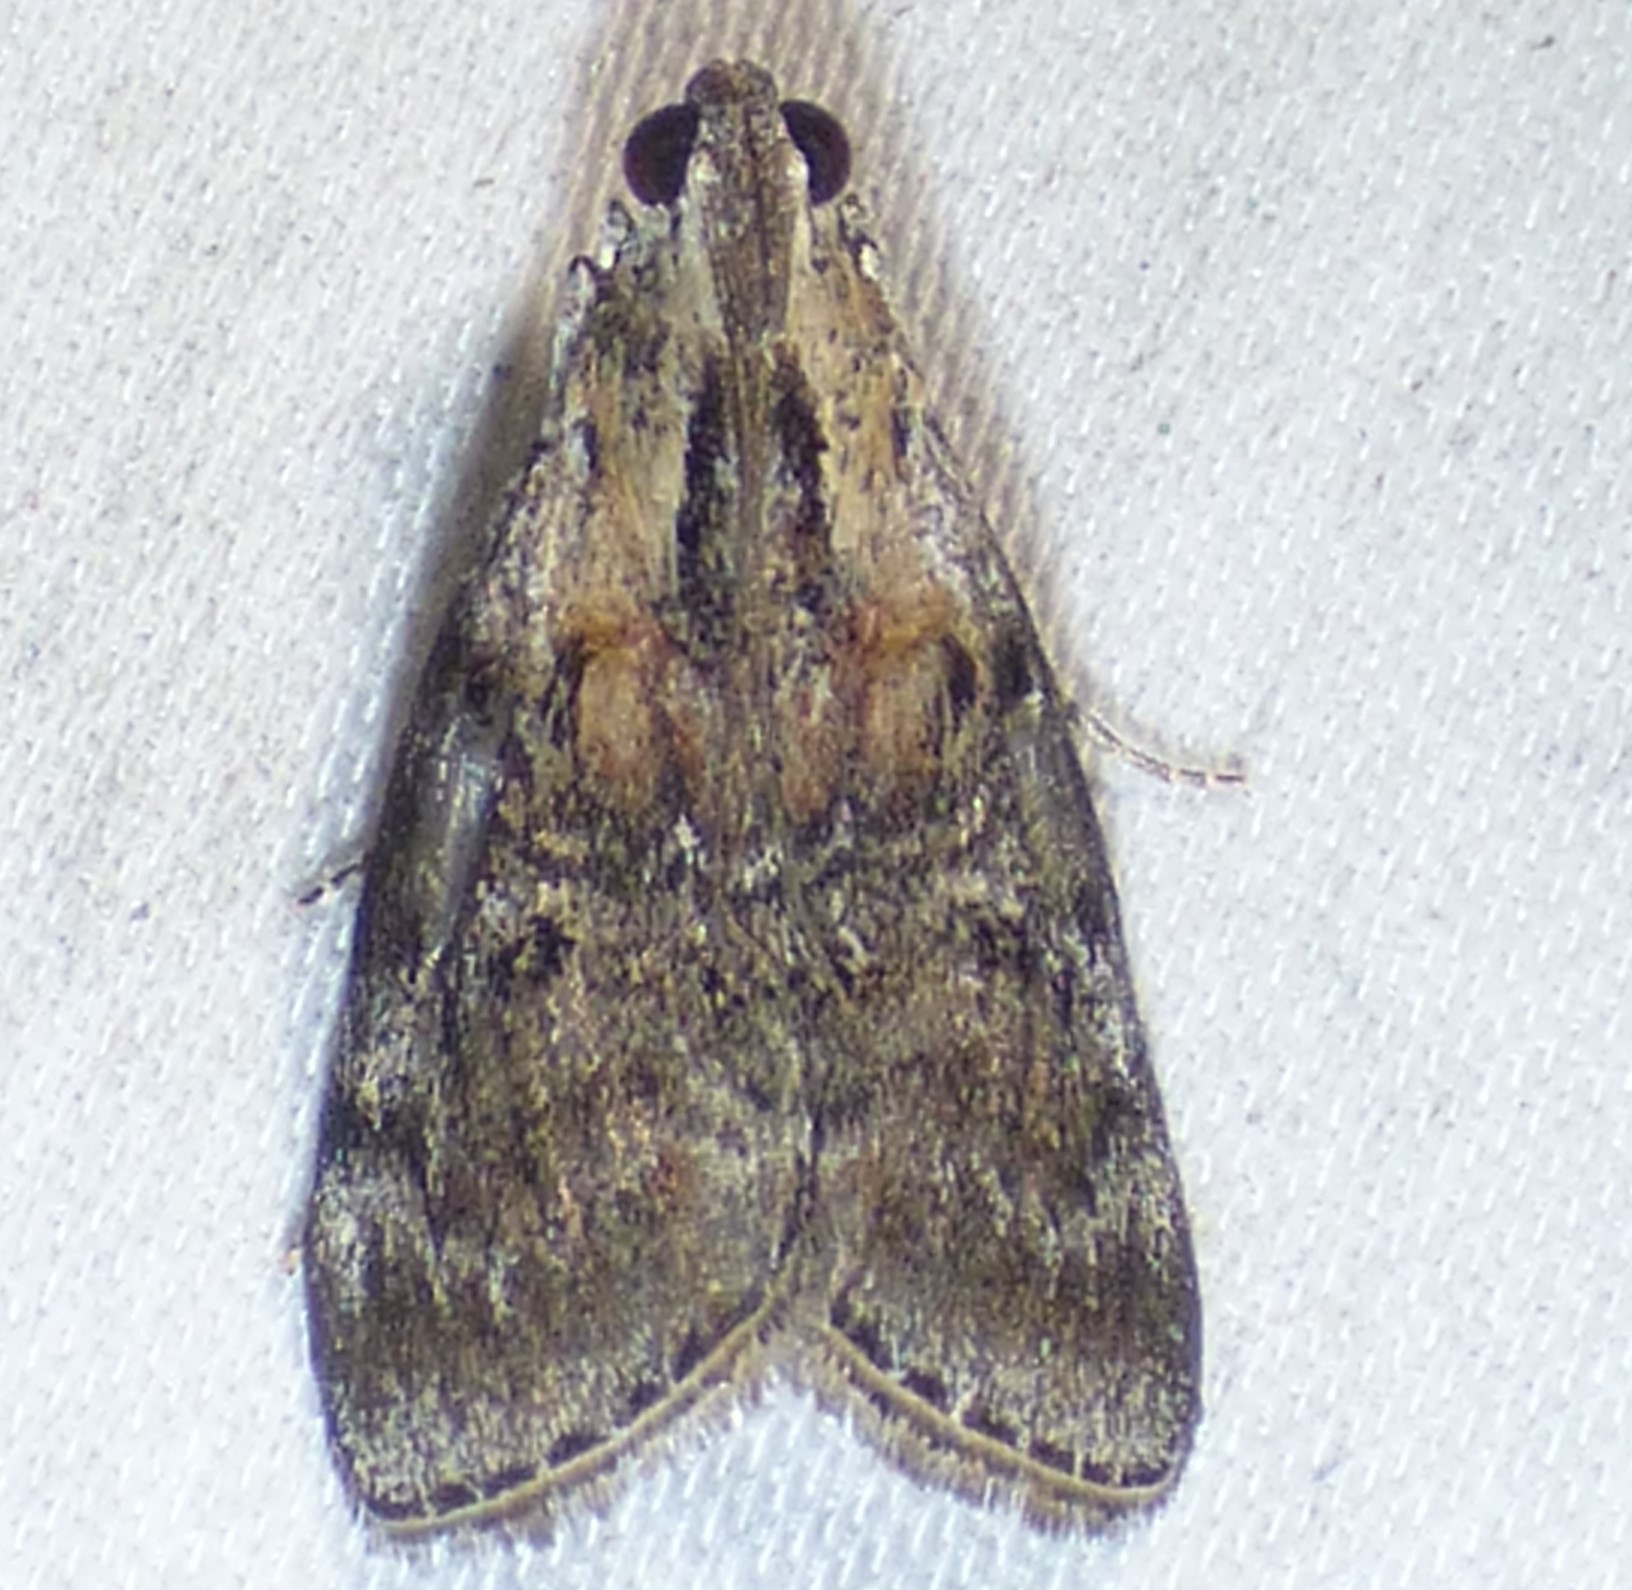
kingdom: Animalia
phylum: Arthropoda
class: Insecta
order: Lepidoptera
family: Pyralidae
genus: Pococera
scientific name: Pococera expandens
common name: Striped oak webworm moth
